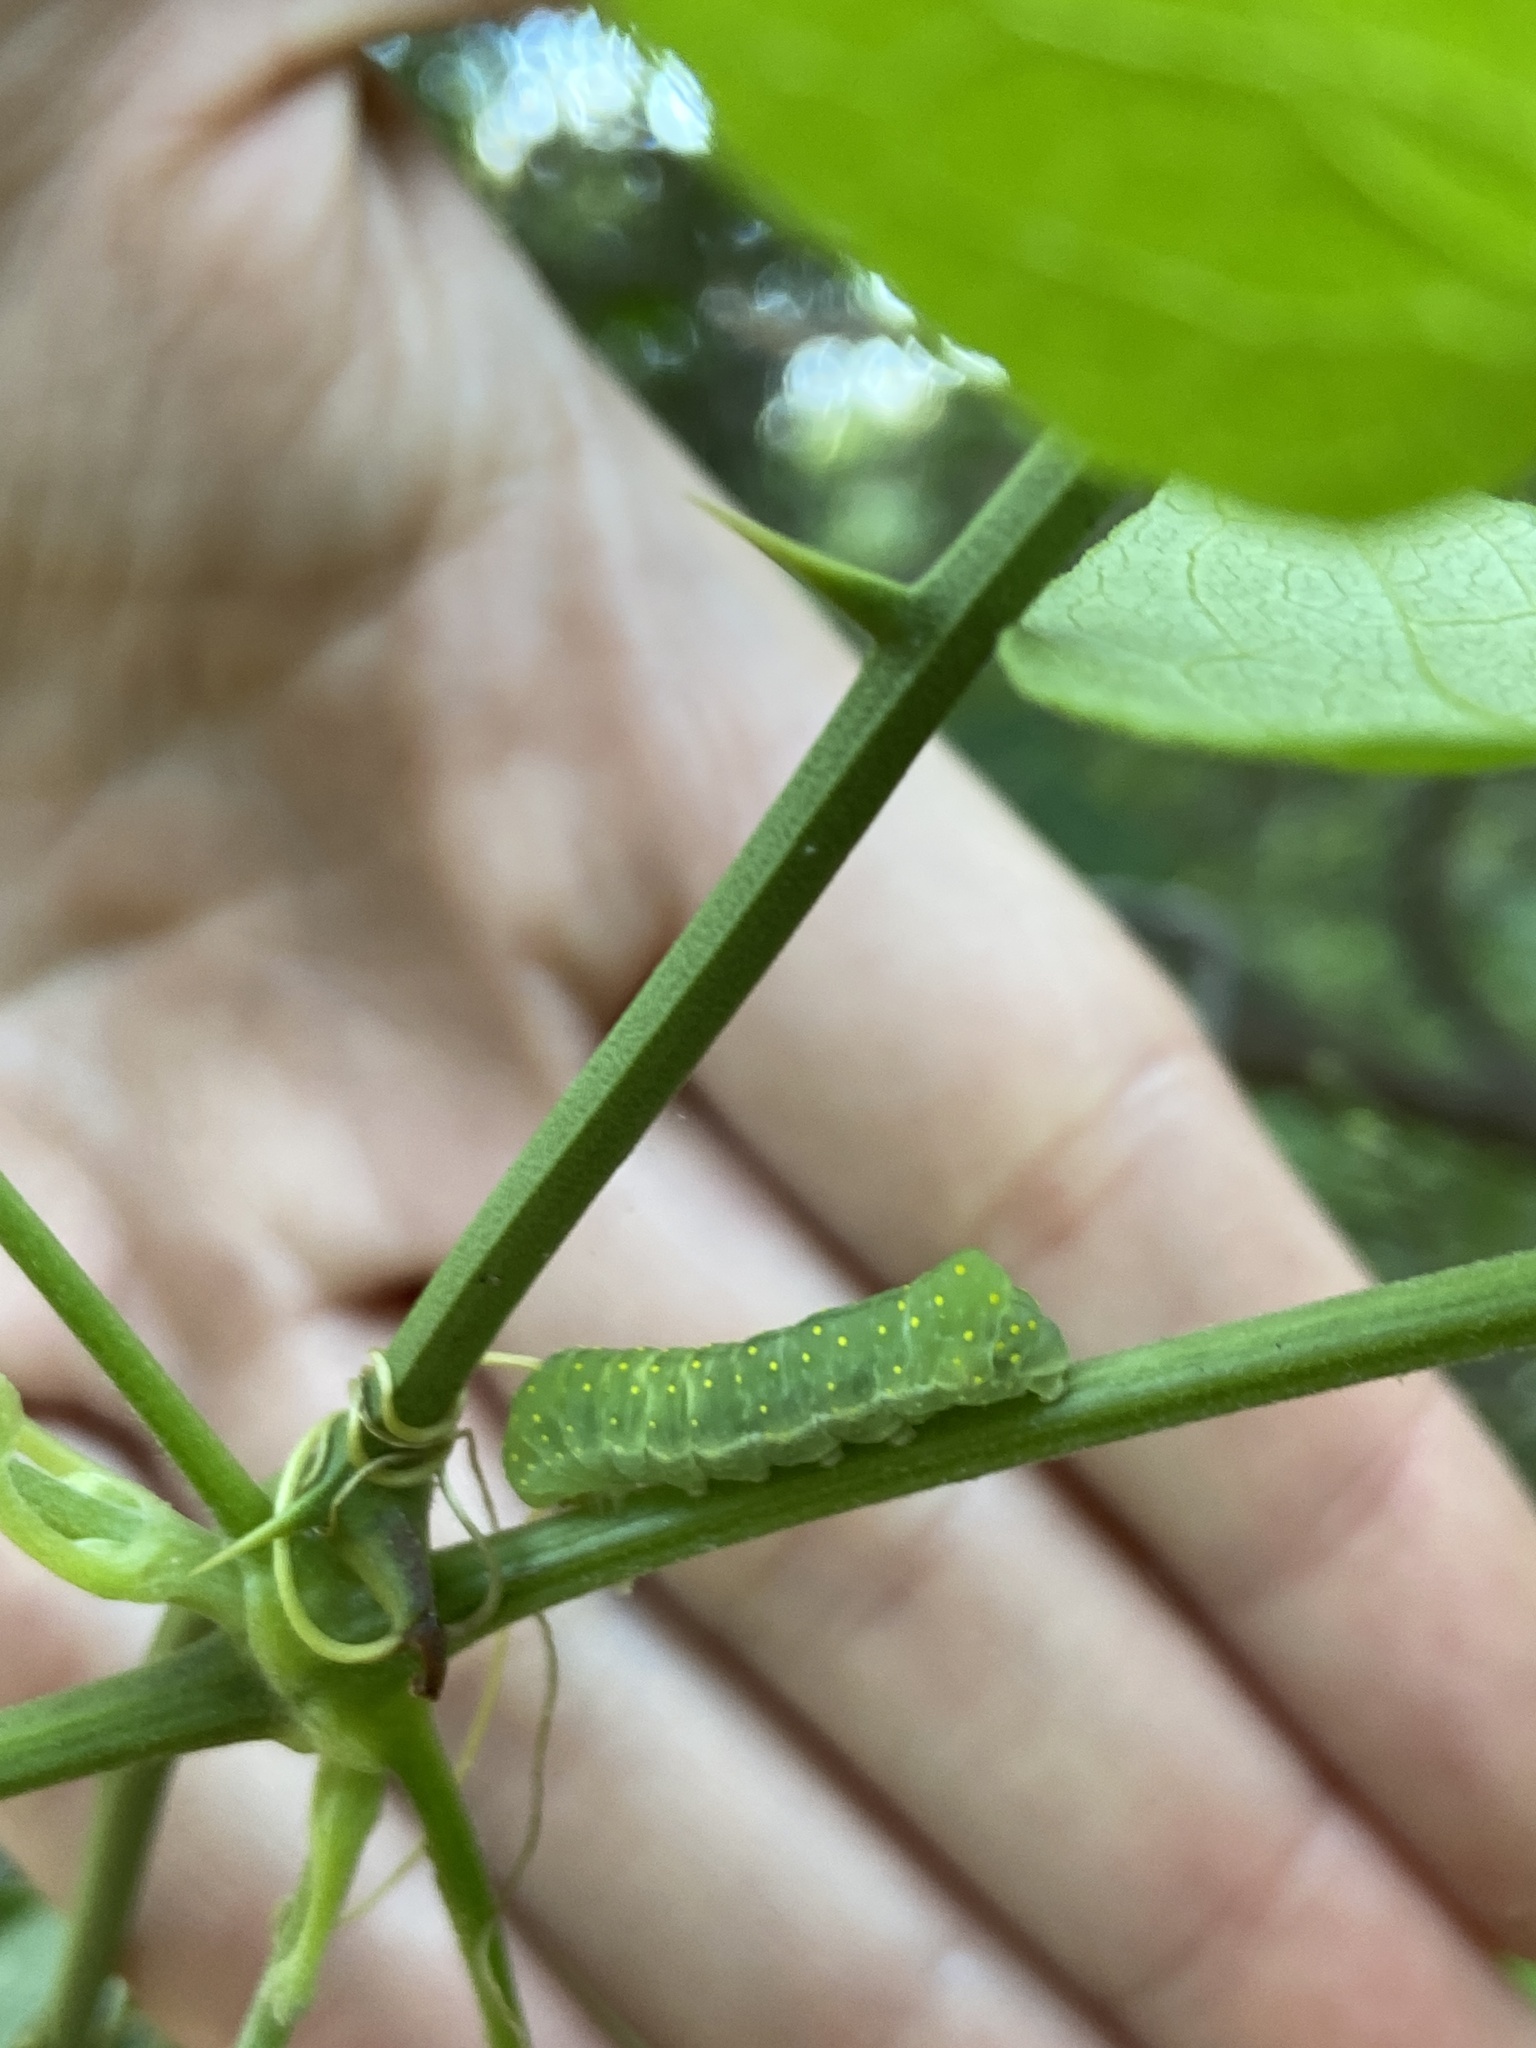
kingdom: Animalia
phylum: Arthropoda
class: Insecta
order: Lepidoptera
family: Noctuidae
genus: Phosphila
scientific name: Phosphila miselioides
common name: Spotted phosphila moth
